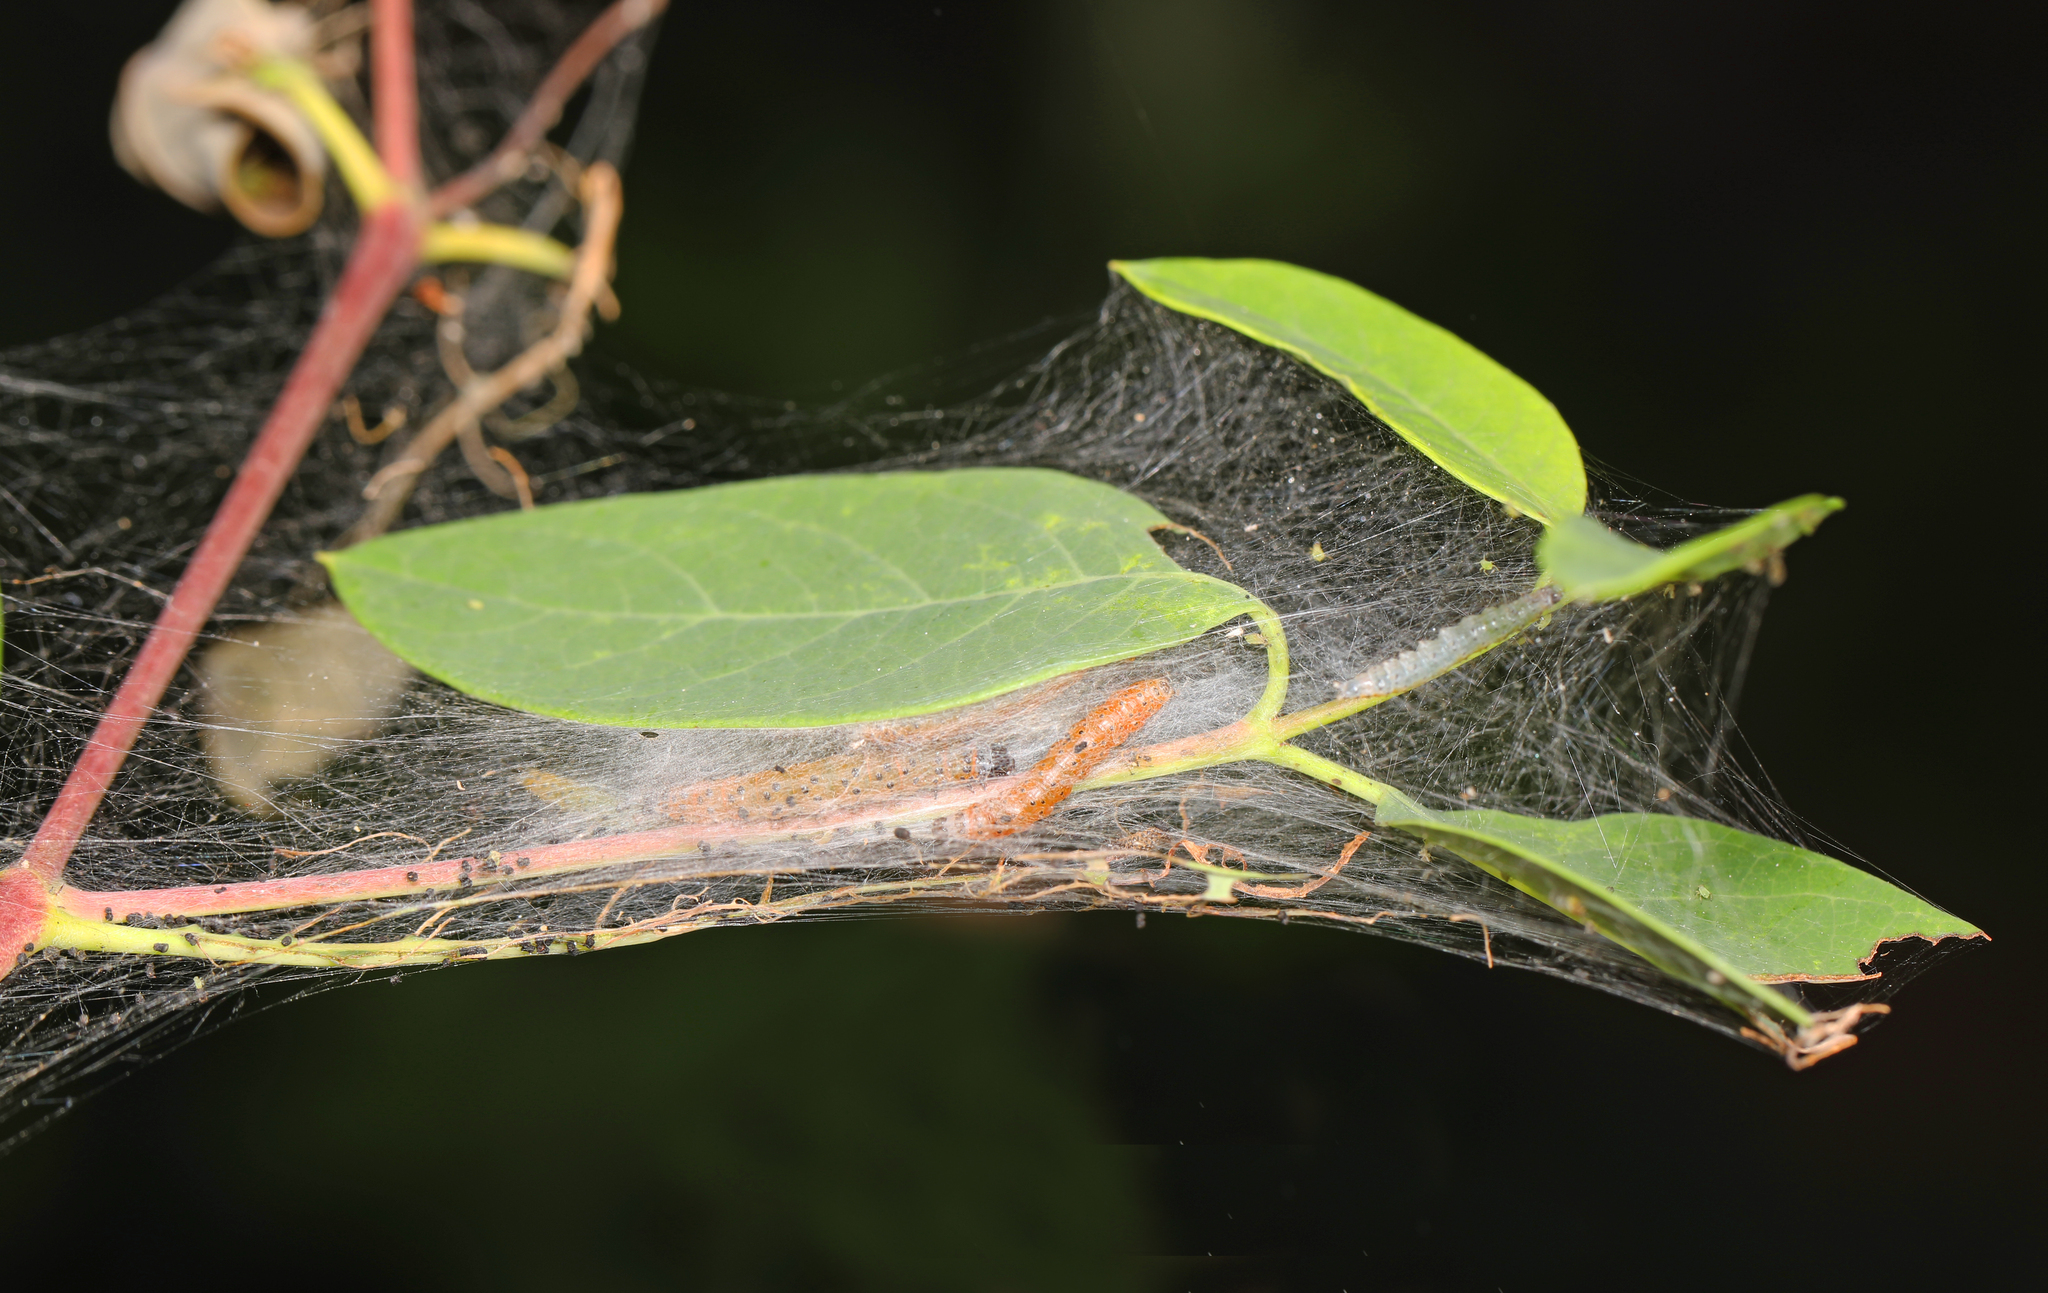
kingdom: Animalia
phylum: Arthropoda
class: Insecta
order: Lepidoptera
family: Crambidae
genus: Saucrobotys
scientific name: Saucrobotys futilalis
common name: Dogbane saucrobotys moth
